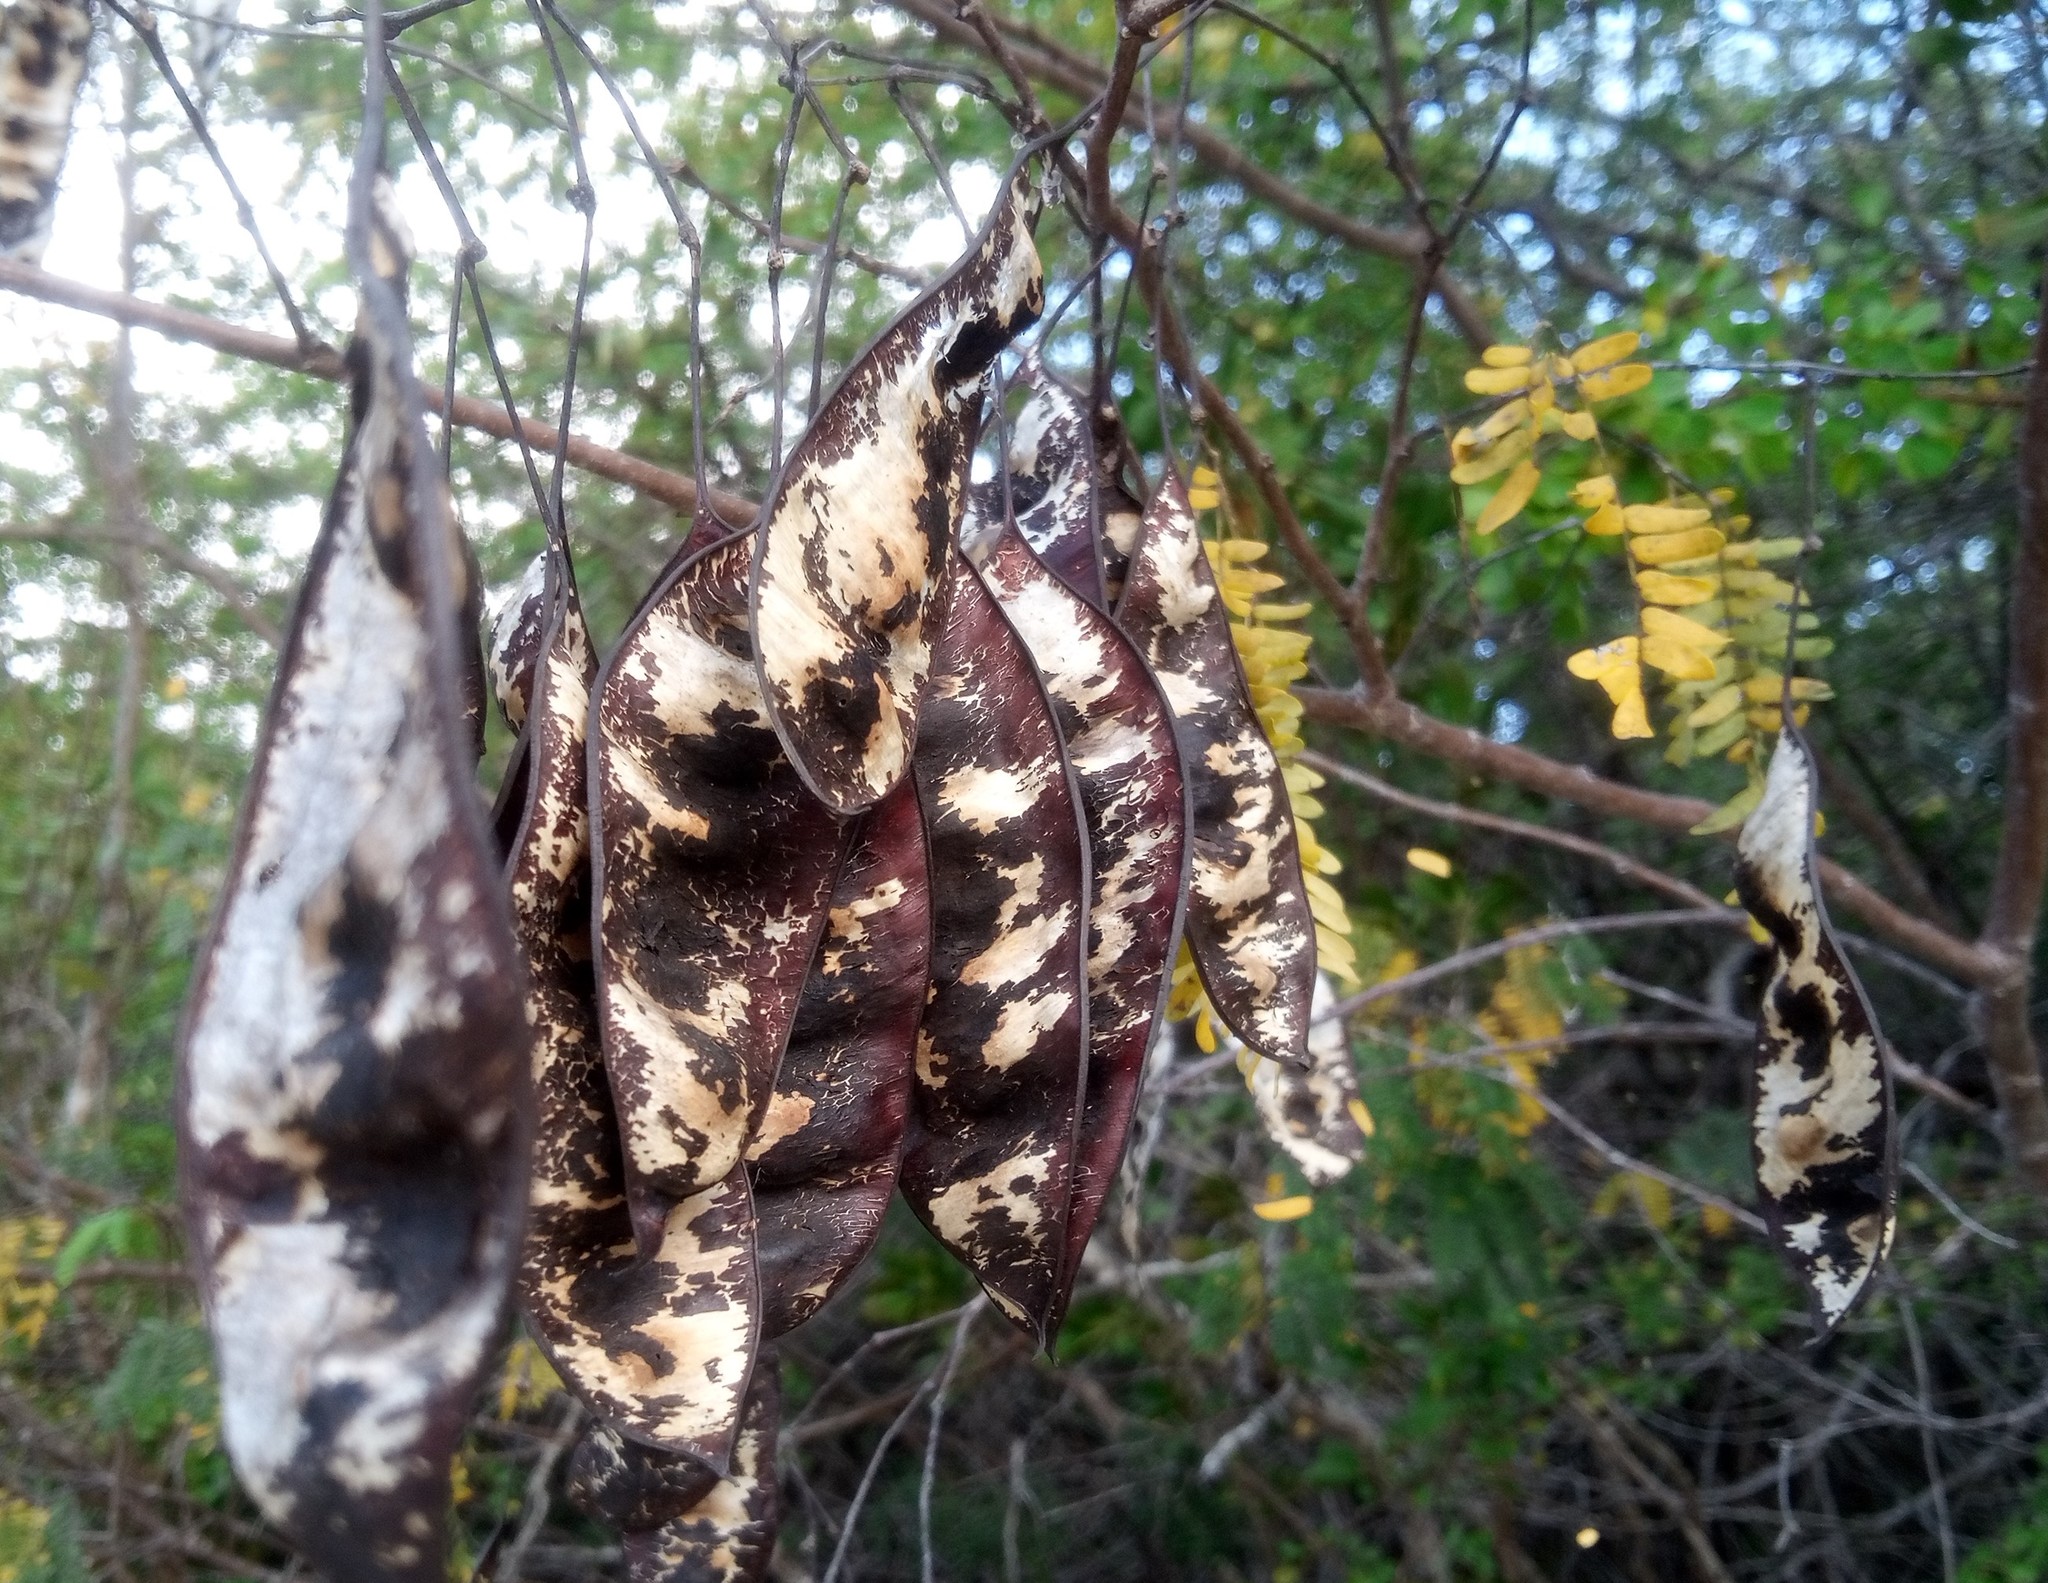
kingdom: Plantae
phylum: Tracheophyta
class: Magnoliopsida
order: Fabales
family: Fabaceae
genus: Lysiloma
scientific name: Lysiloma latisiliquum
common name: Wild tamarind
